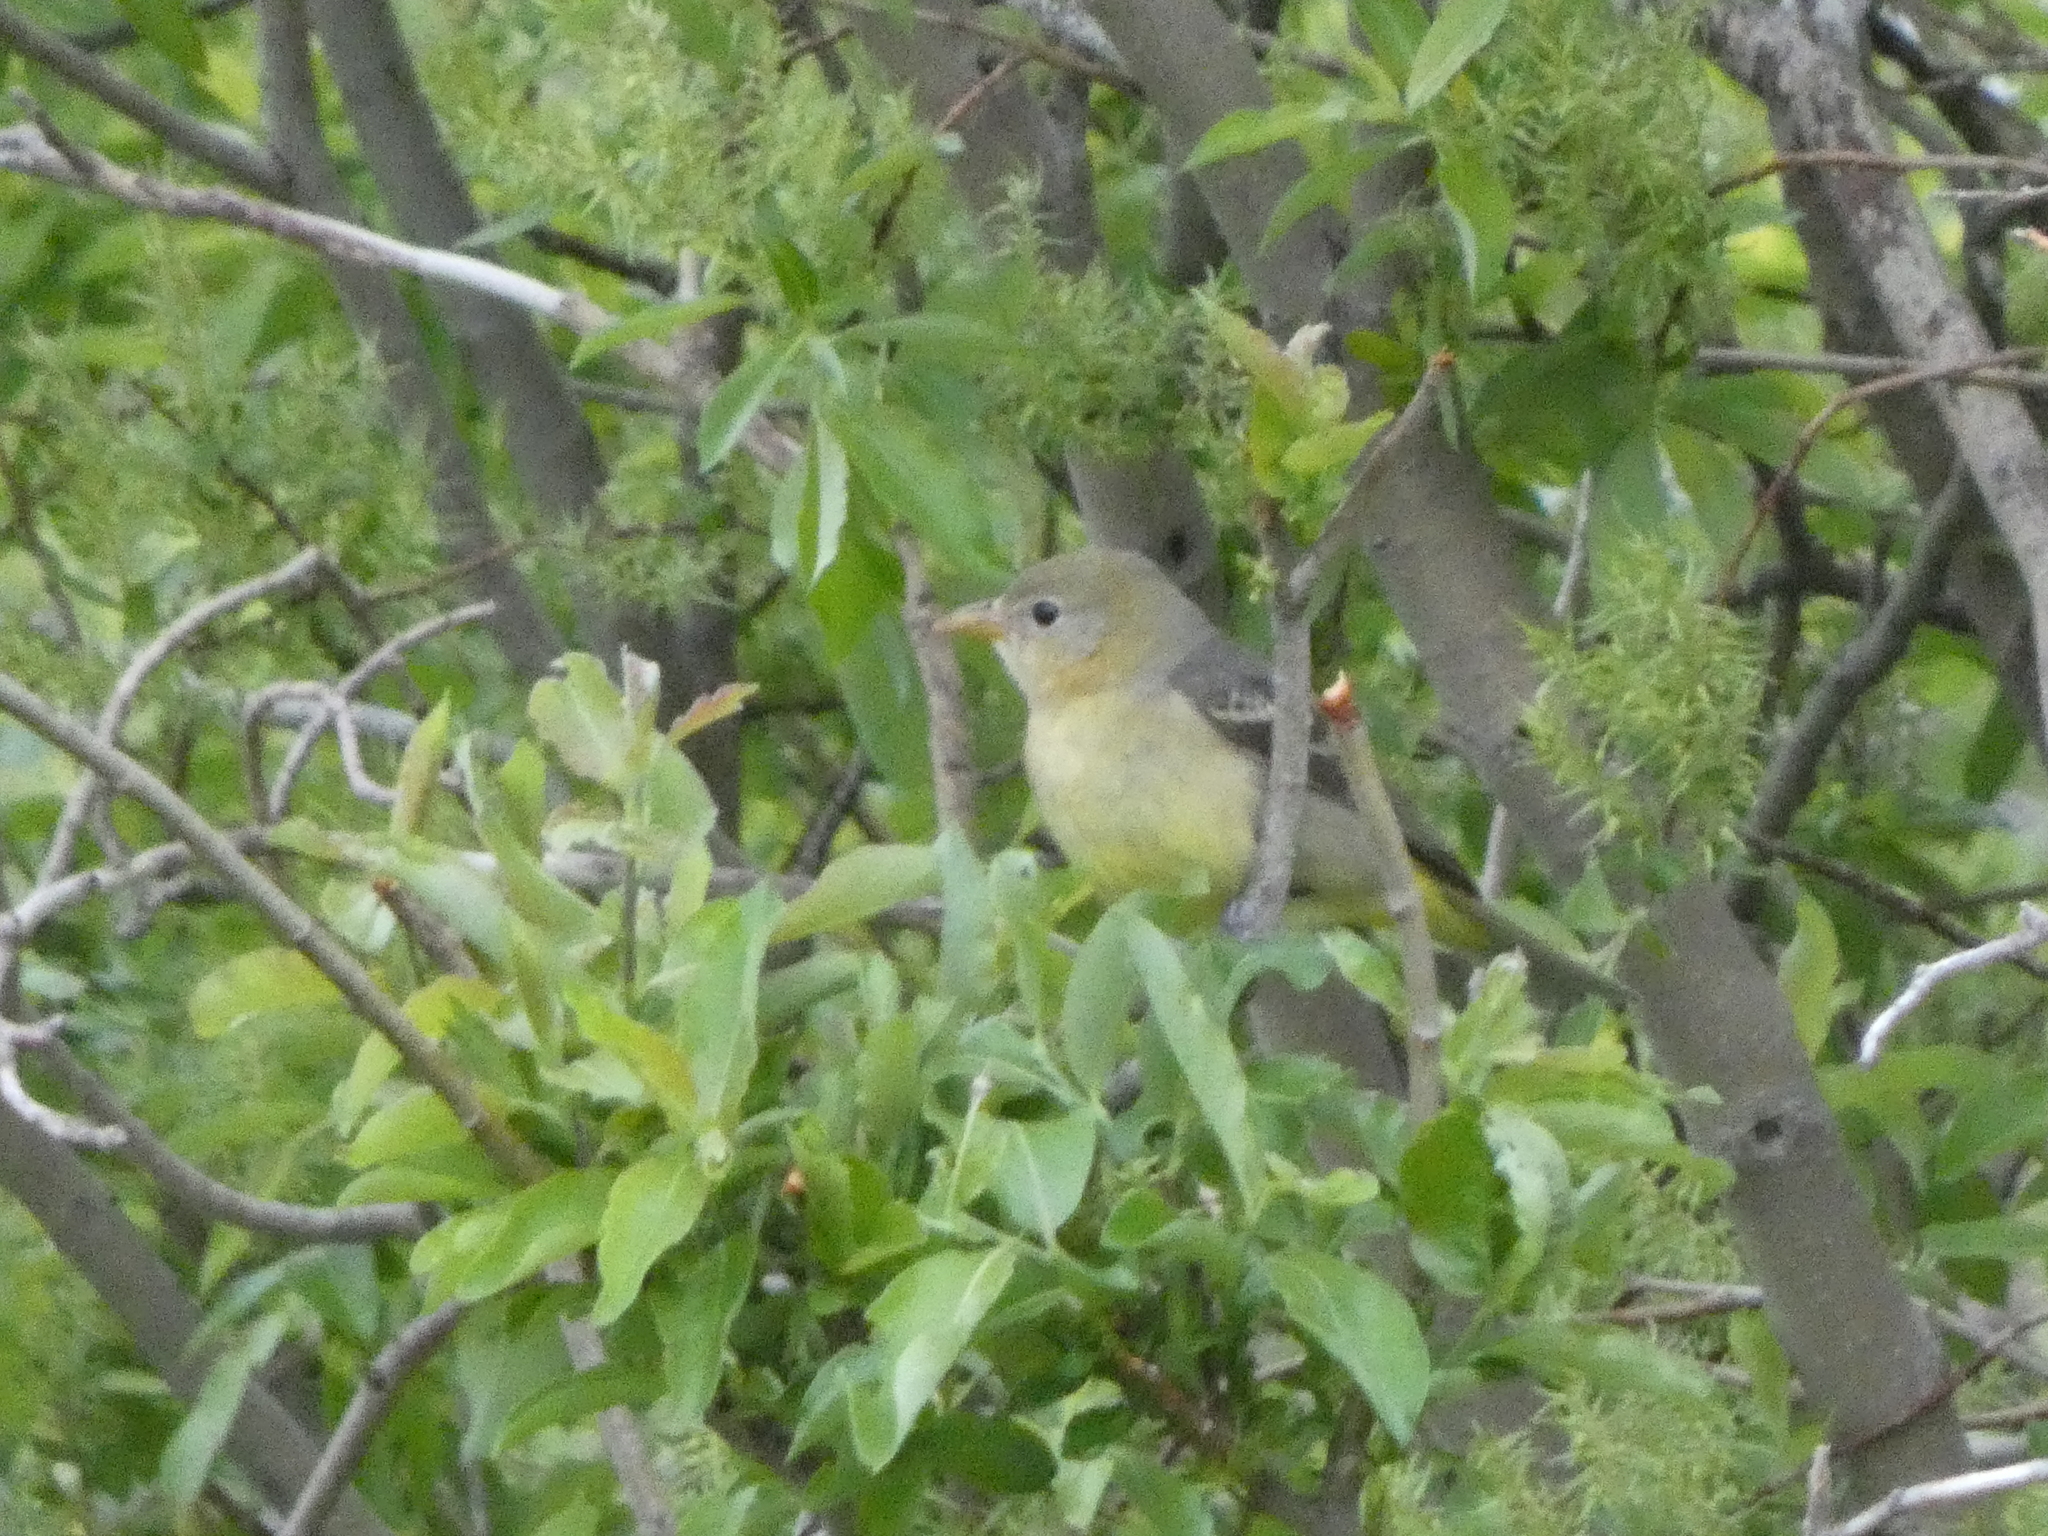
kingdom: Animalia
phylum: Chordata
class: Aves
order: Passeriformes
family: Cardinalidae
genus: Piranga
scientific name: Piranga ludoviciana
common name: Western tanager
